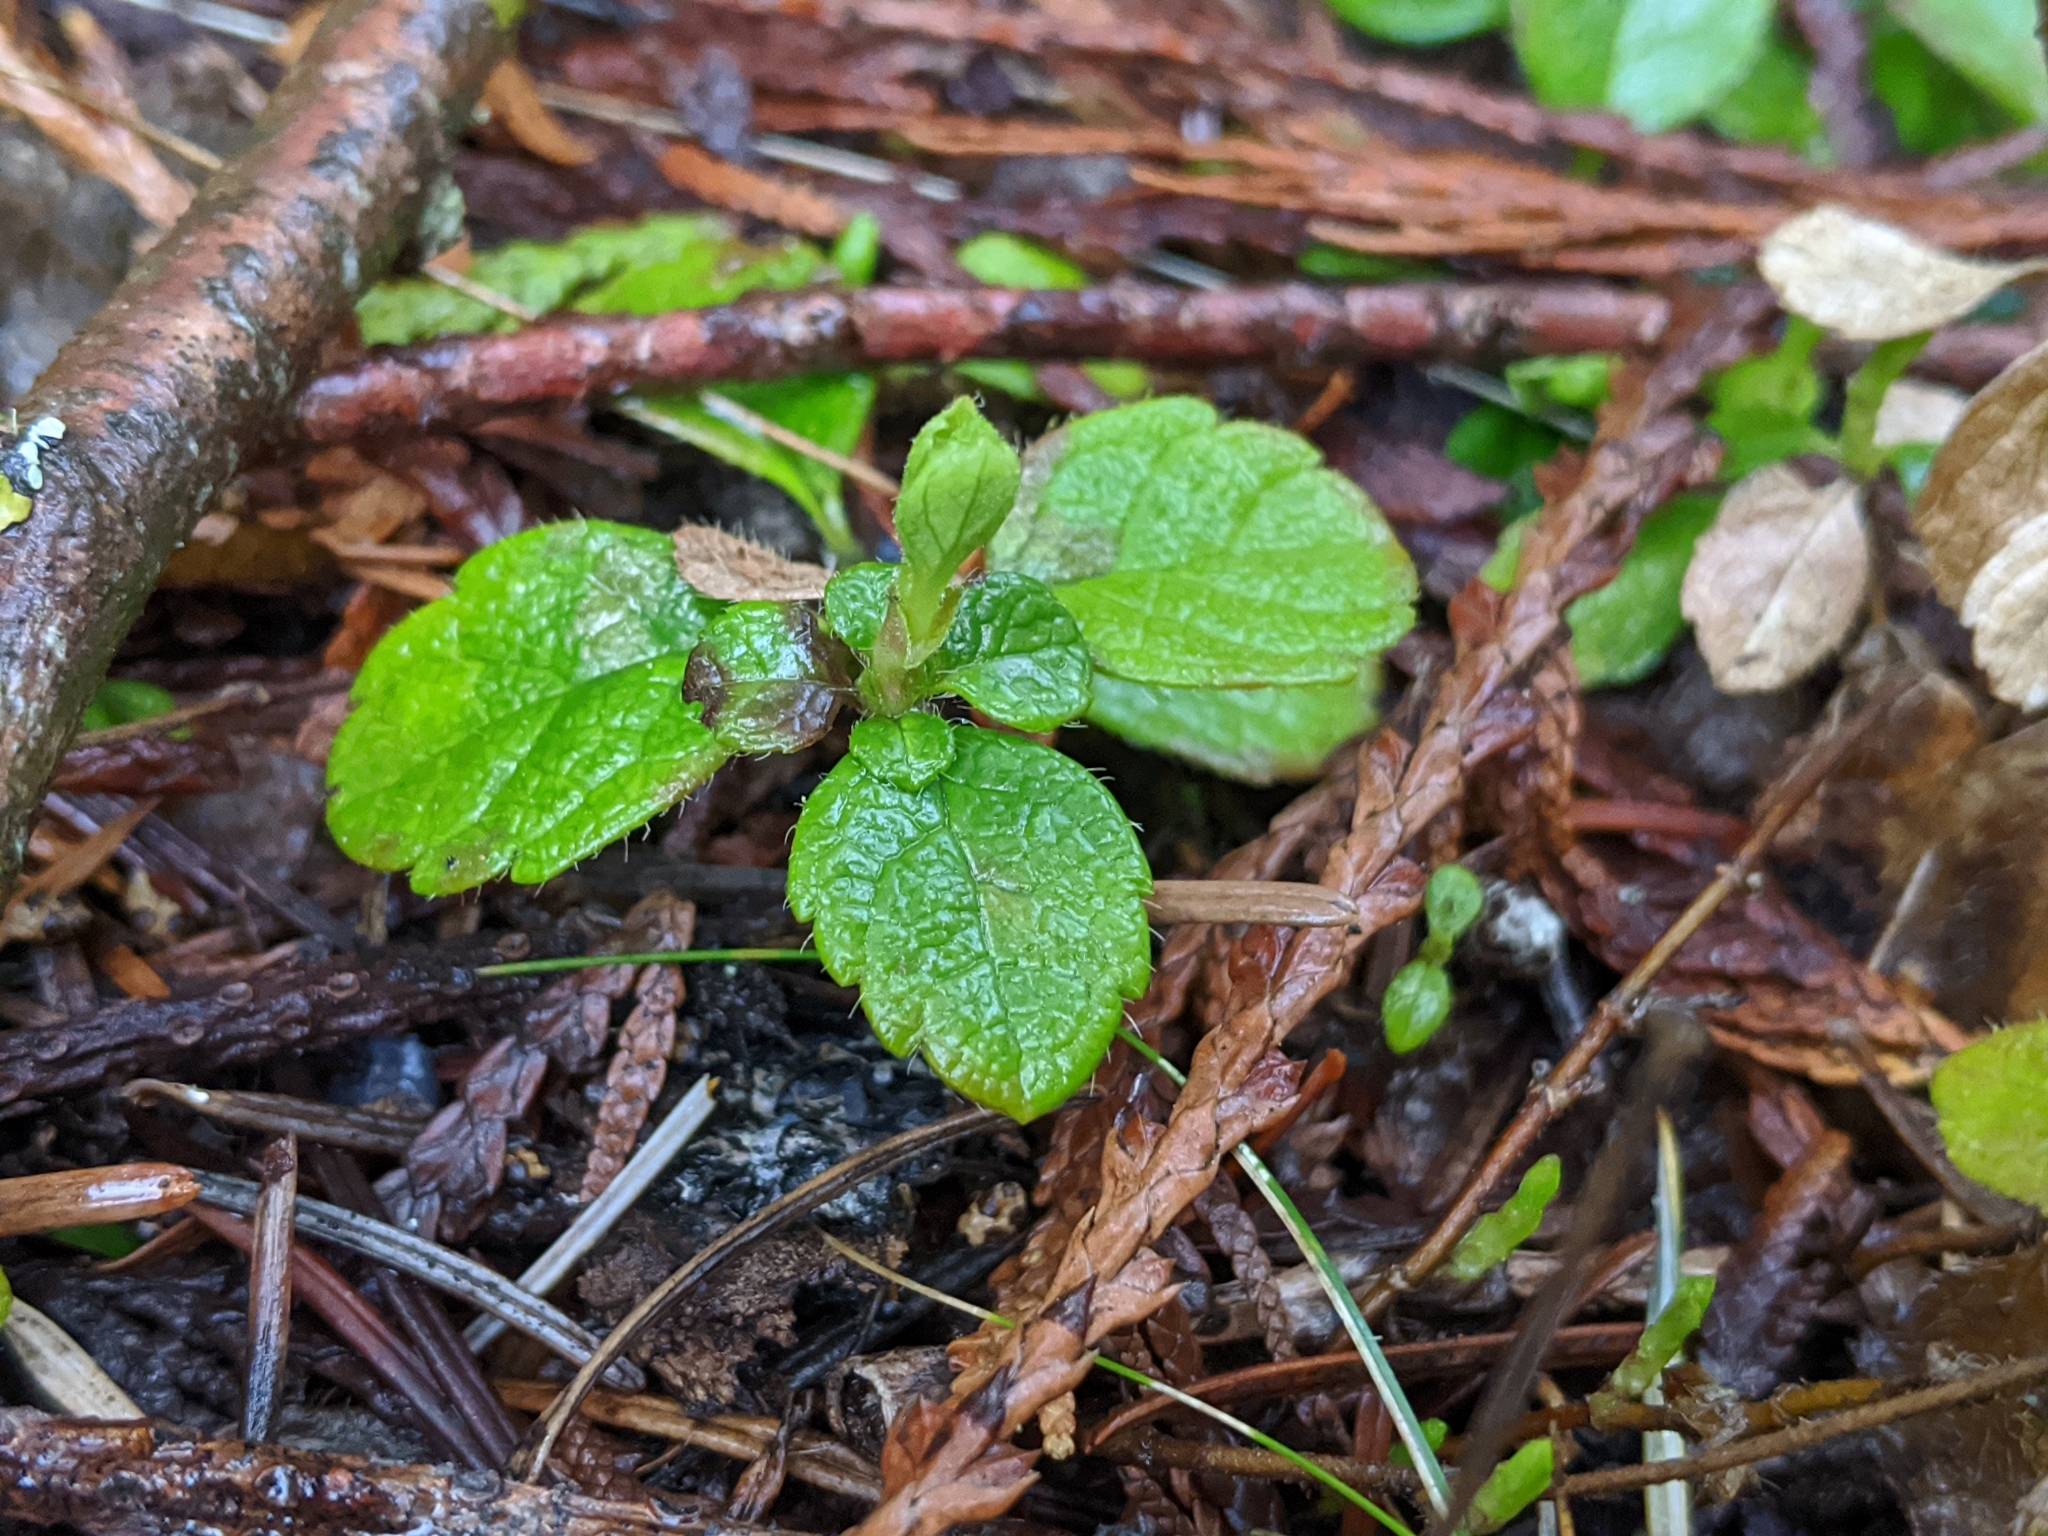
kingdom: Plantae
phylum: Tracheophyta
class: Magnoliopsida
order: Dipsacales
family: Caprifoliaceae
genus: Linnaea
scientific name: Linnaea borealis
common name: Twinflower
